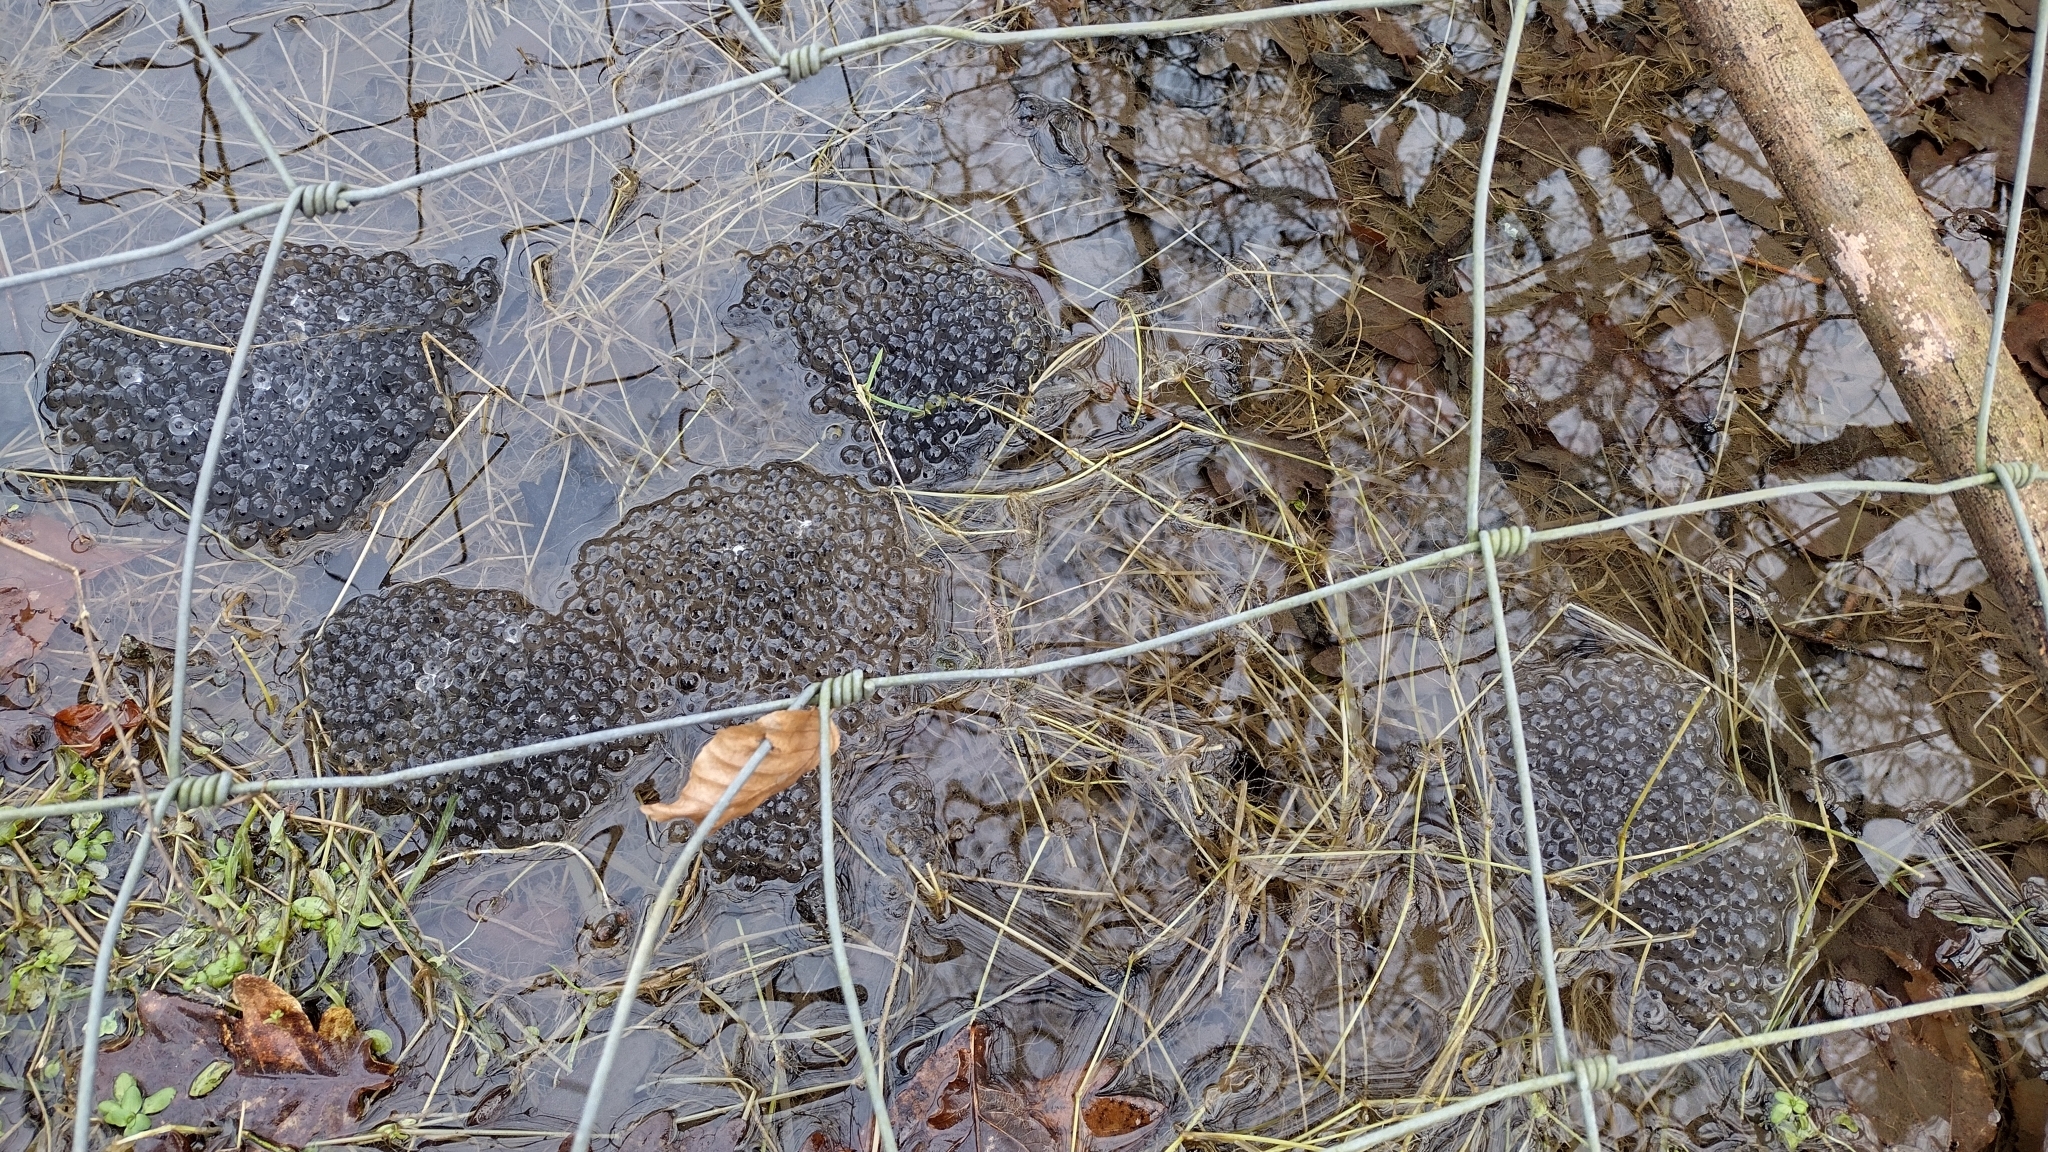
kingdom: Animalia
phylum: Chordata
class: Amphibia
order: Anura
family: Ranidae
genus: Rana
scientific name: Rana temporaria
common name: Common frog
